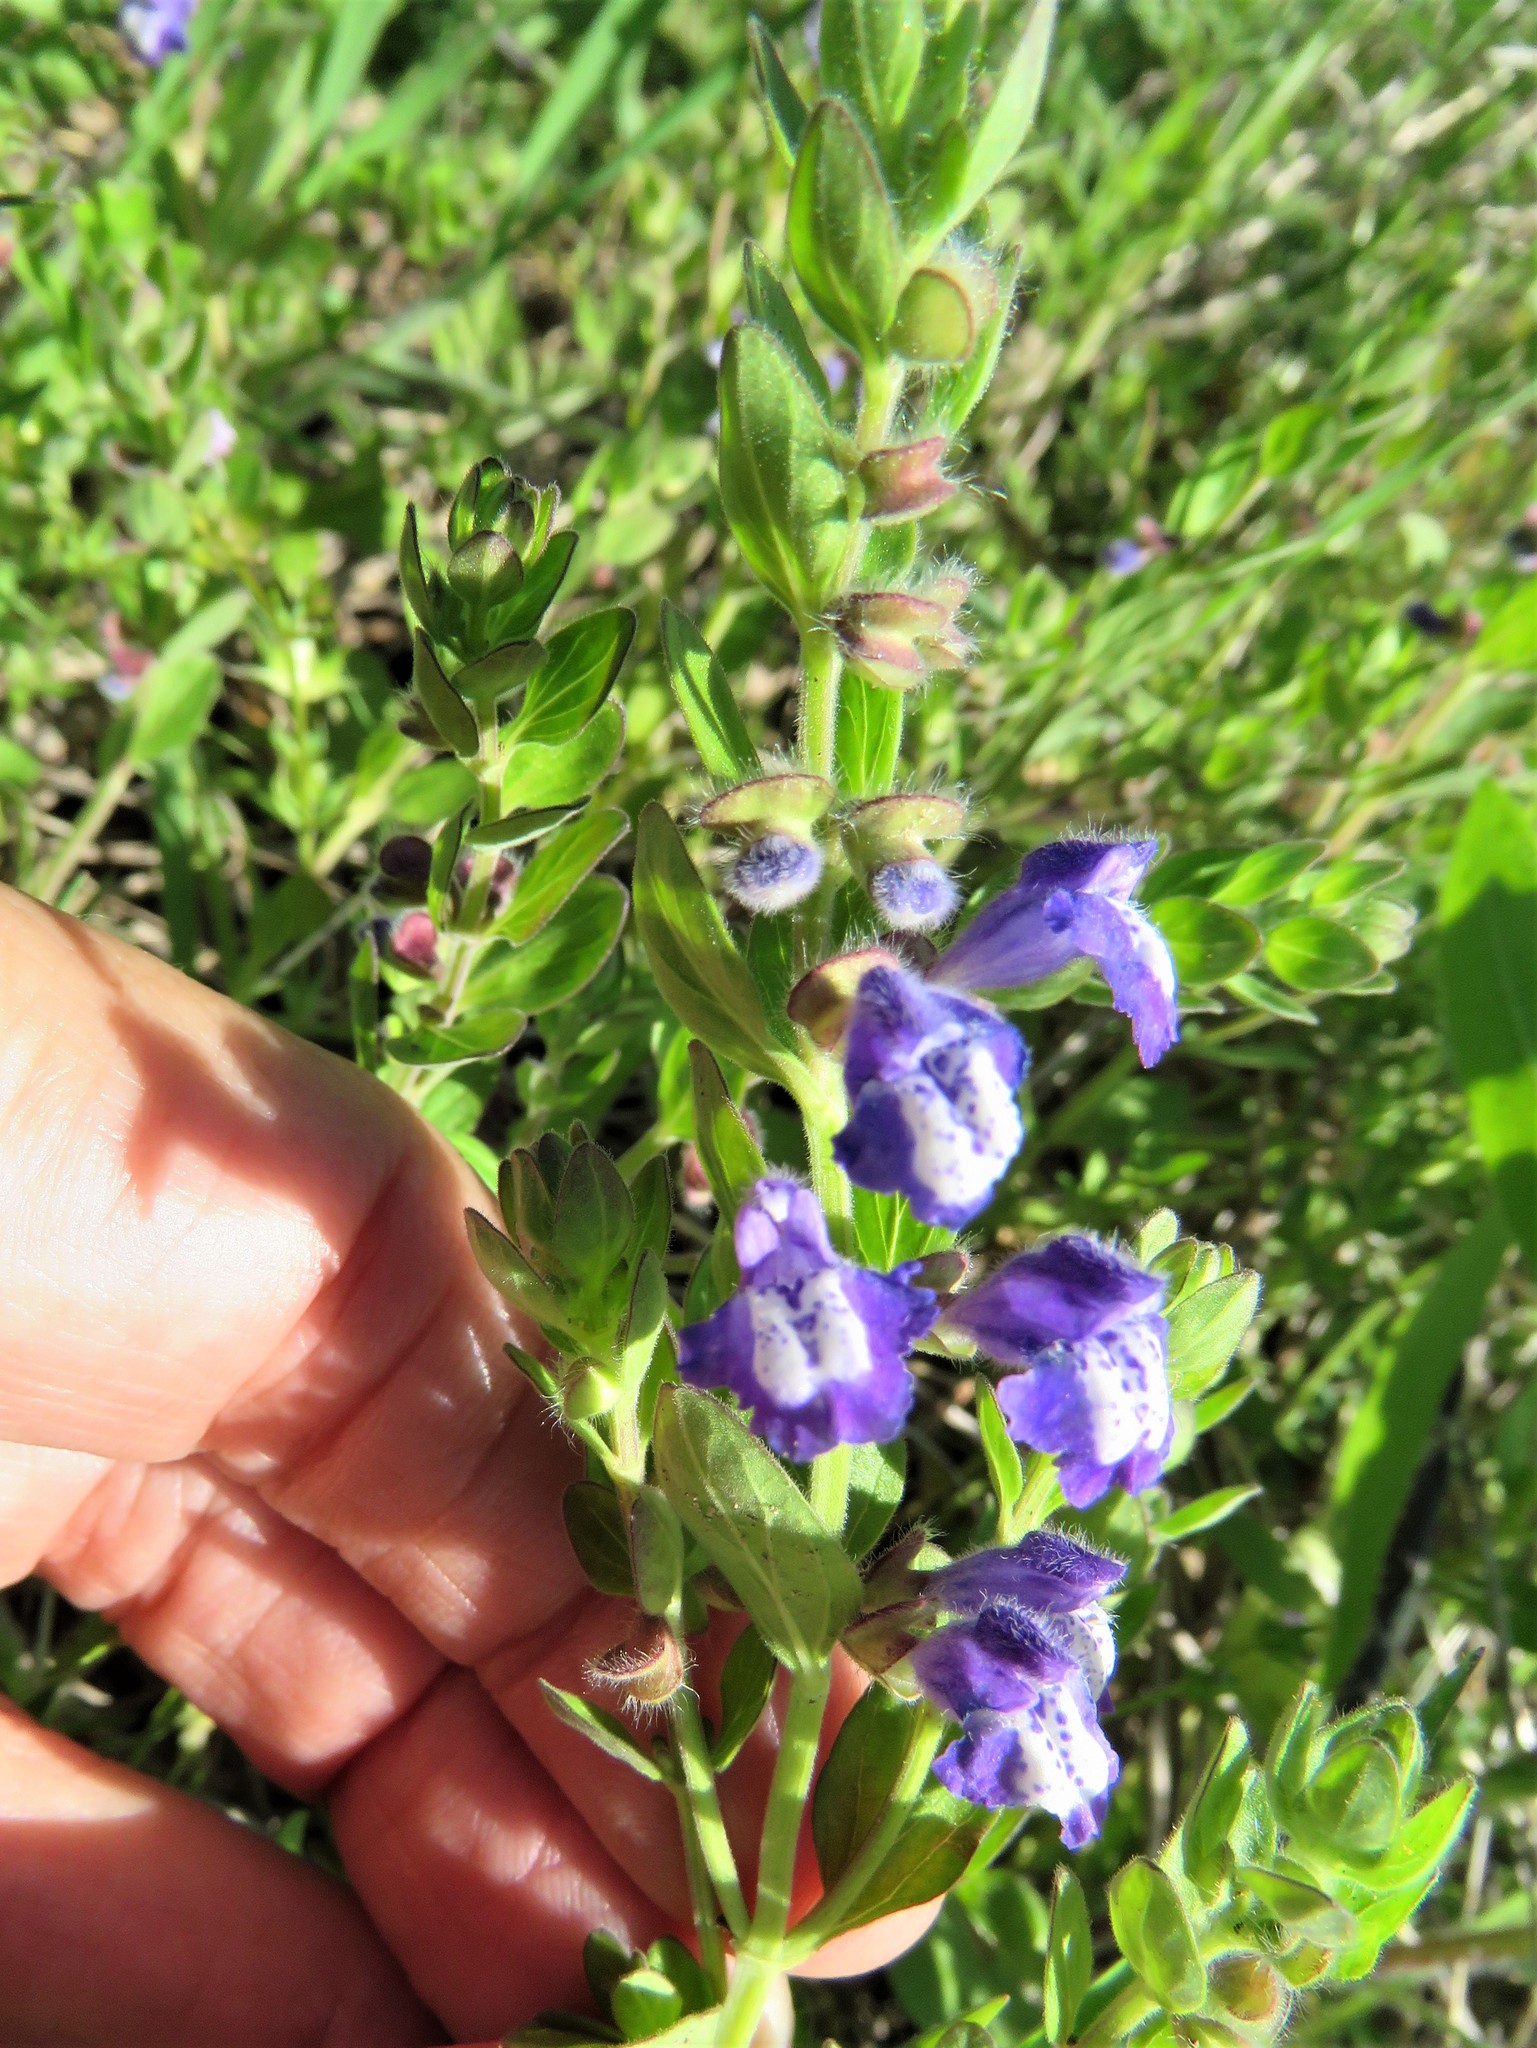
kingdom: Plantae
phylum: Tracheophyta
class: Magnoliopsida
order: Lamiales
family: Lamiaceae
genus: Scutellaria
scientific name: Scutellaria drummondii
